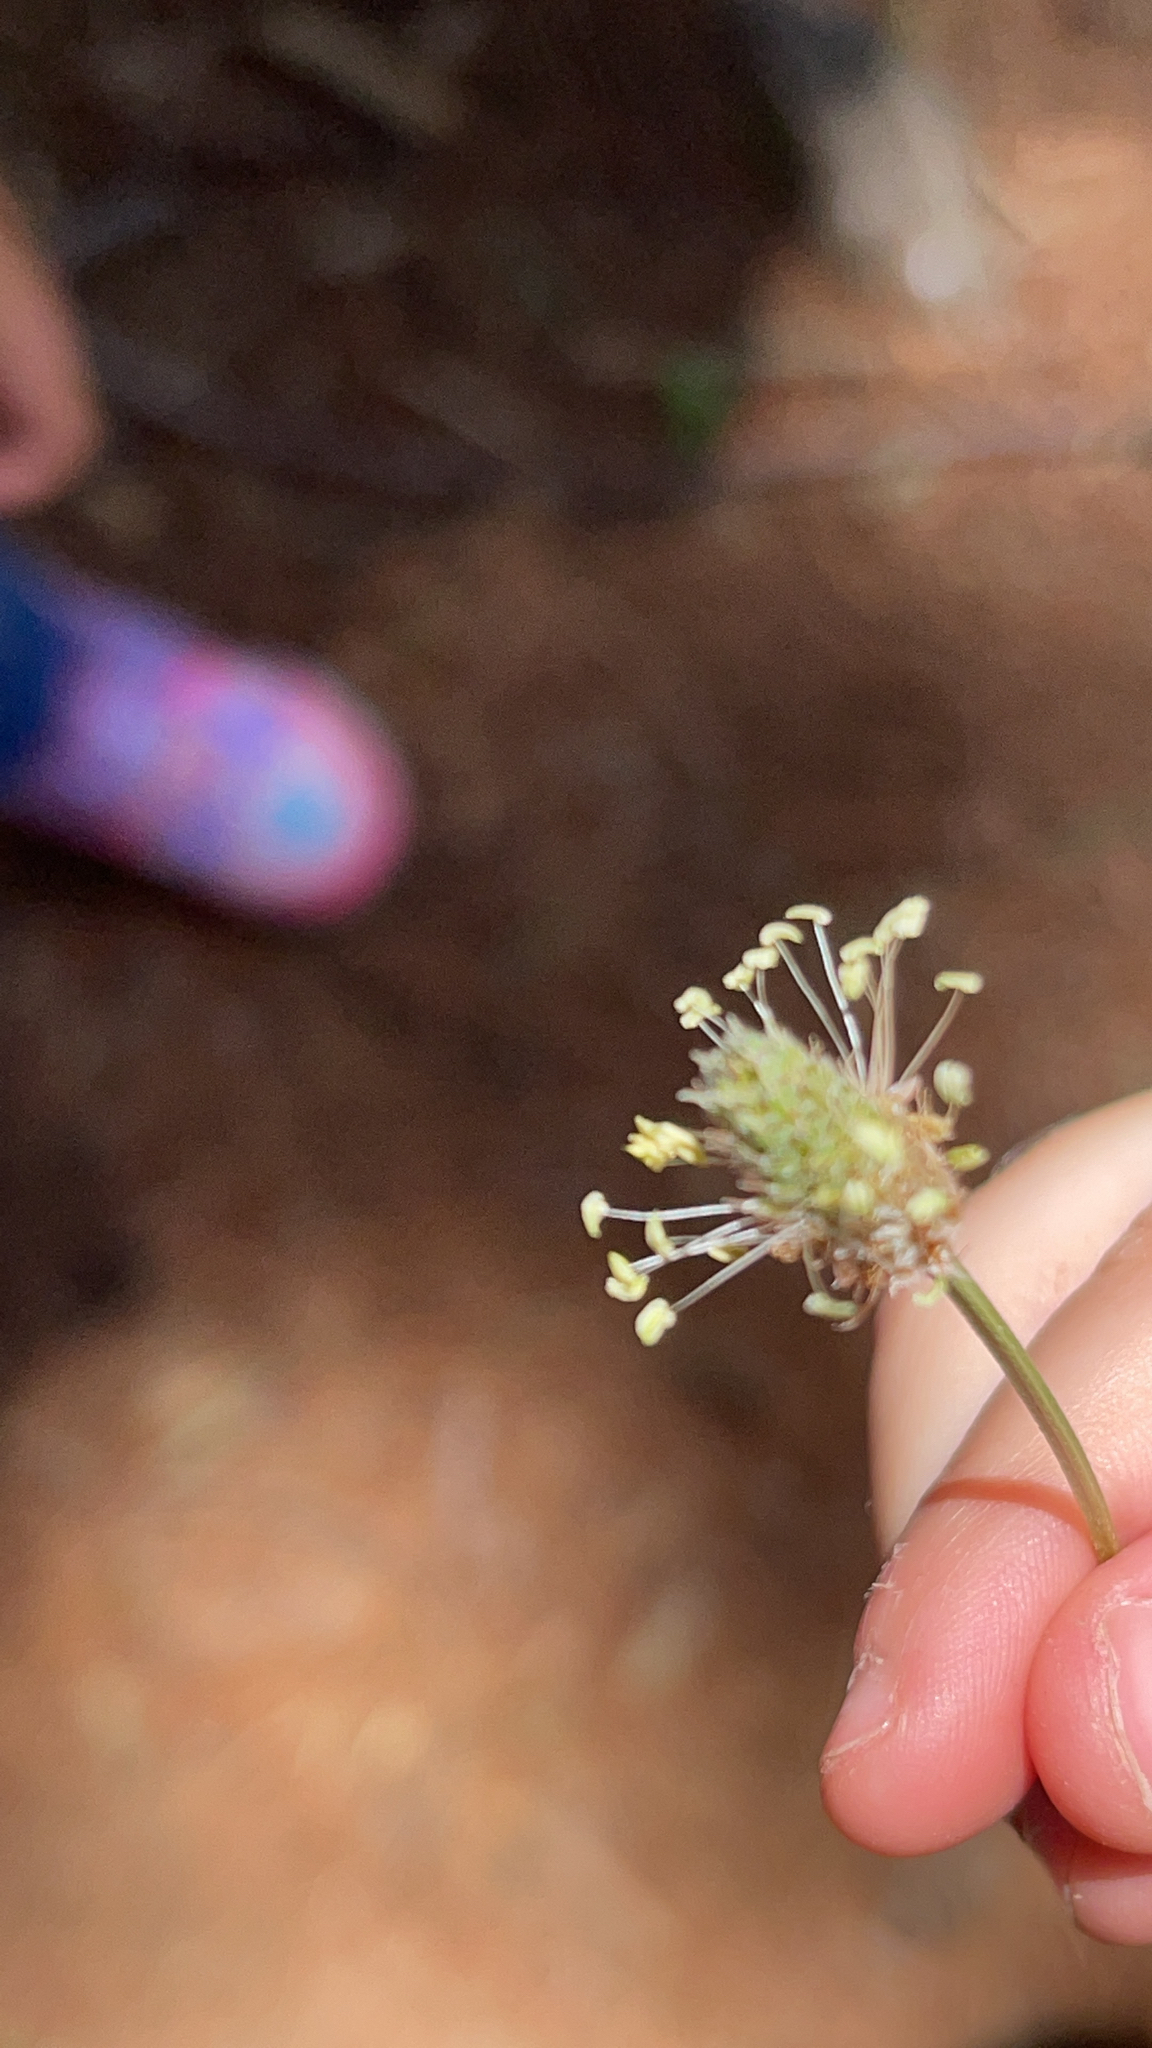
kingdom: Plantae
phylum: Tracheophyta
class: Magnoliopsida
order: Lamiales
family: Plantaginaceae
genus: Plantago
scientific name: Plantago lanceolata
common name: Ribwort plantain
